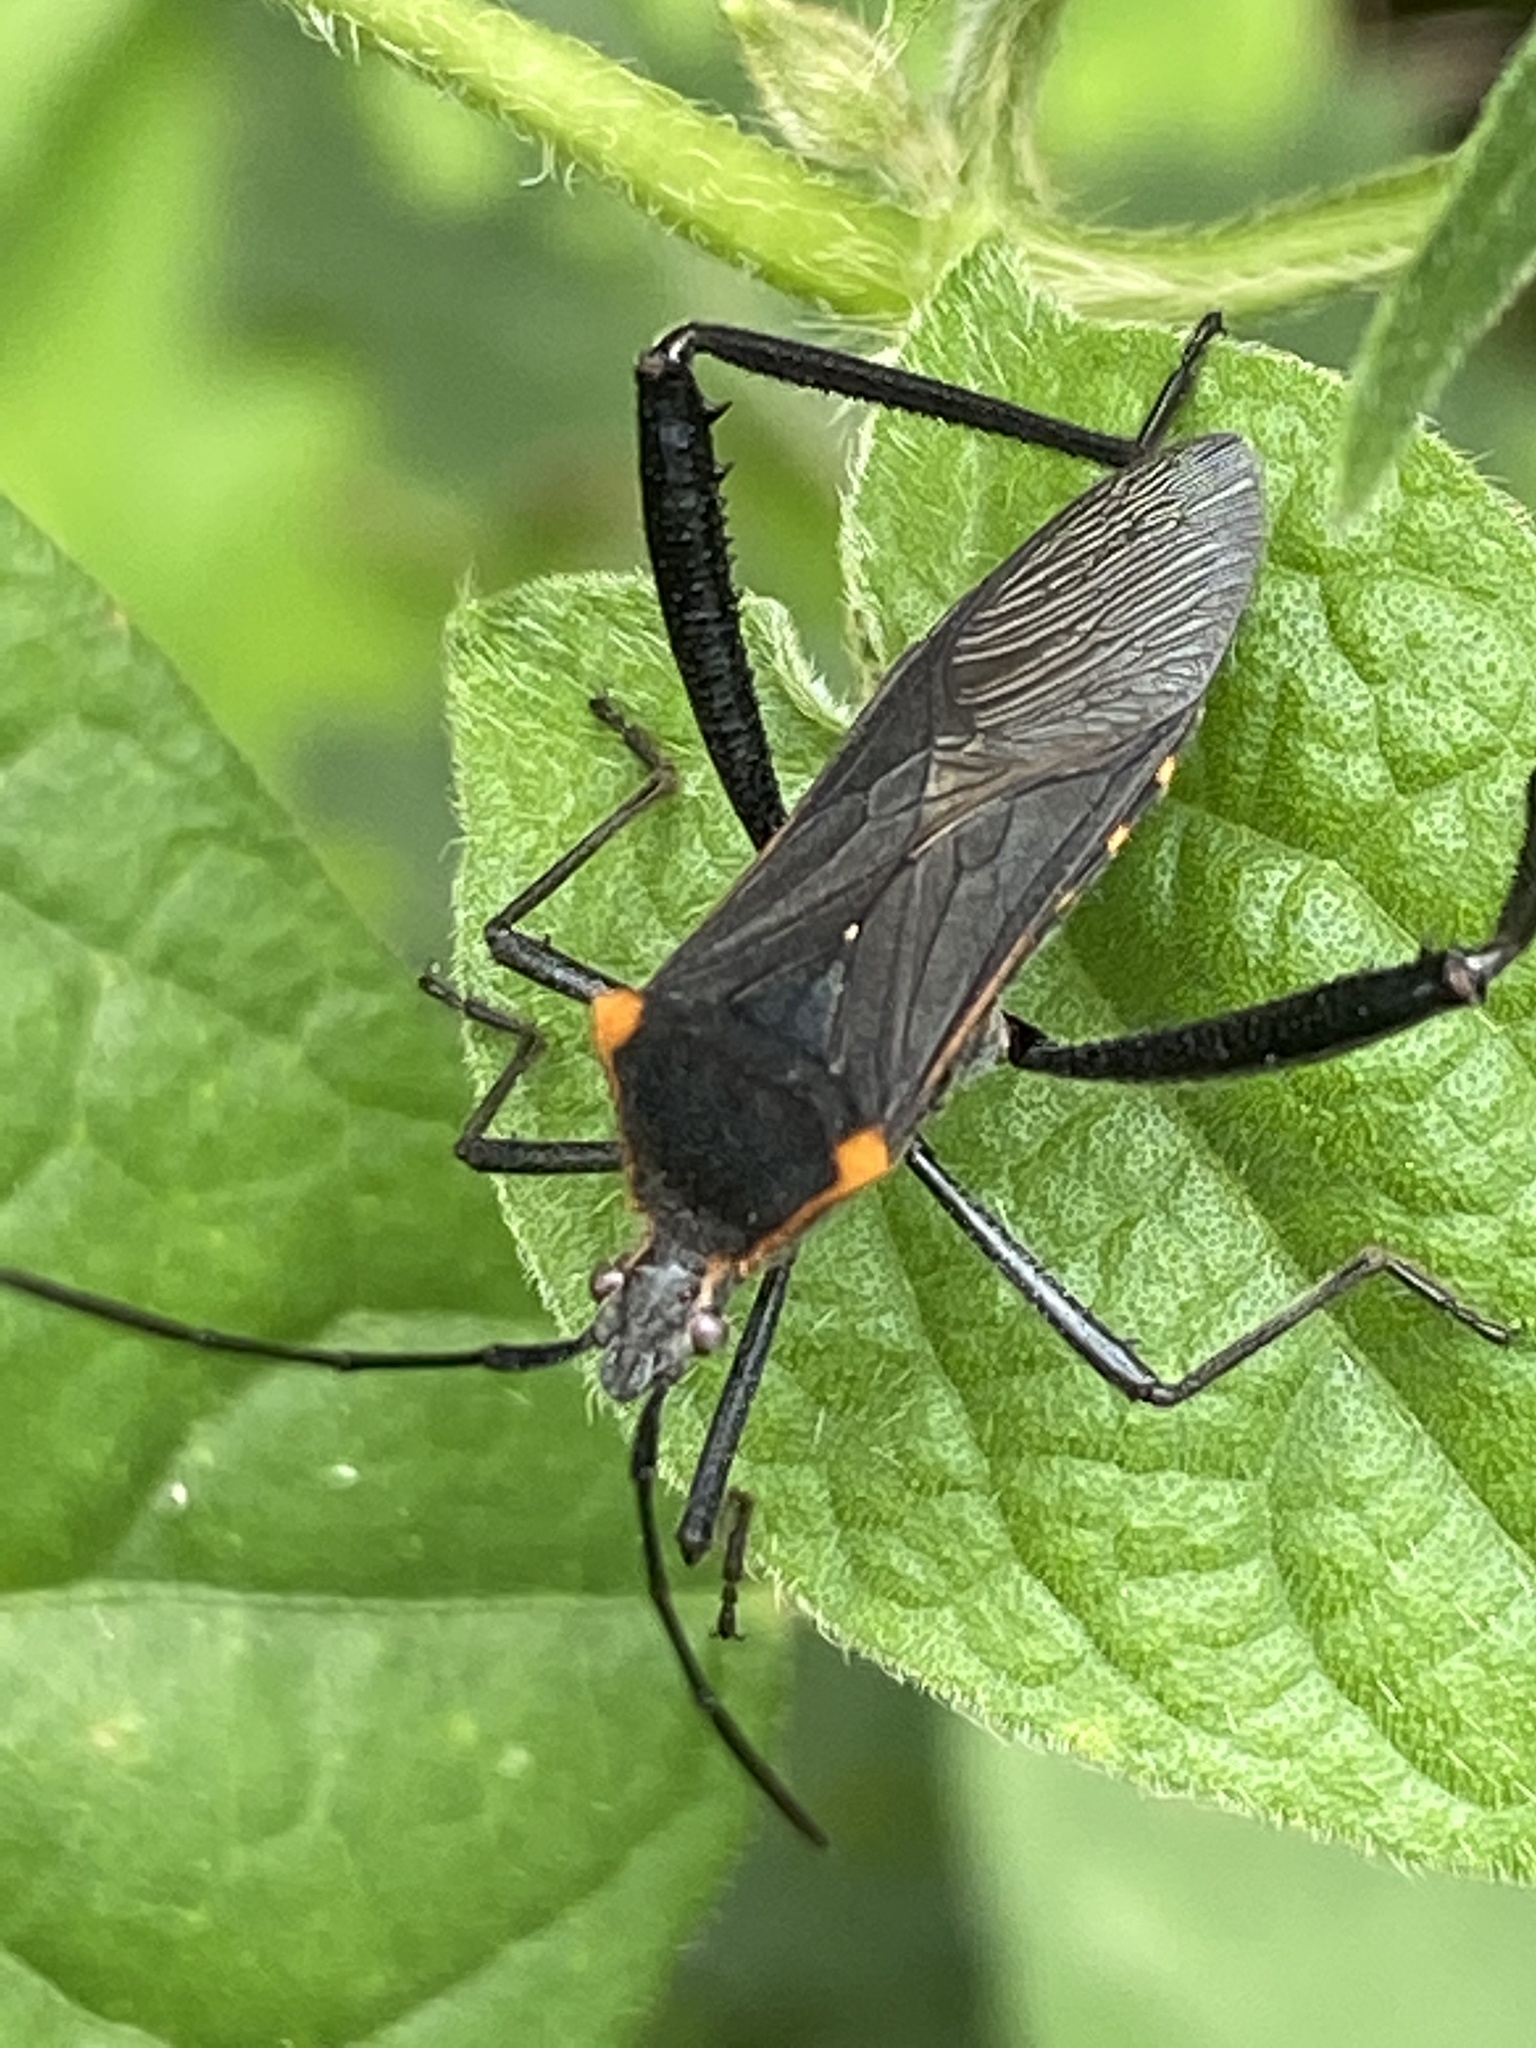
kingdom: Animalia
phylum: Arthropoda
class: Insecta
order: Hemiptera
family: Coreidae
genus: Phthiacnemia
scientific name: Phthiacnemia picta
